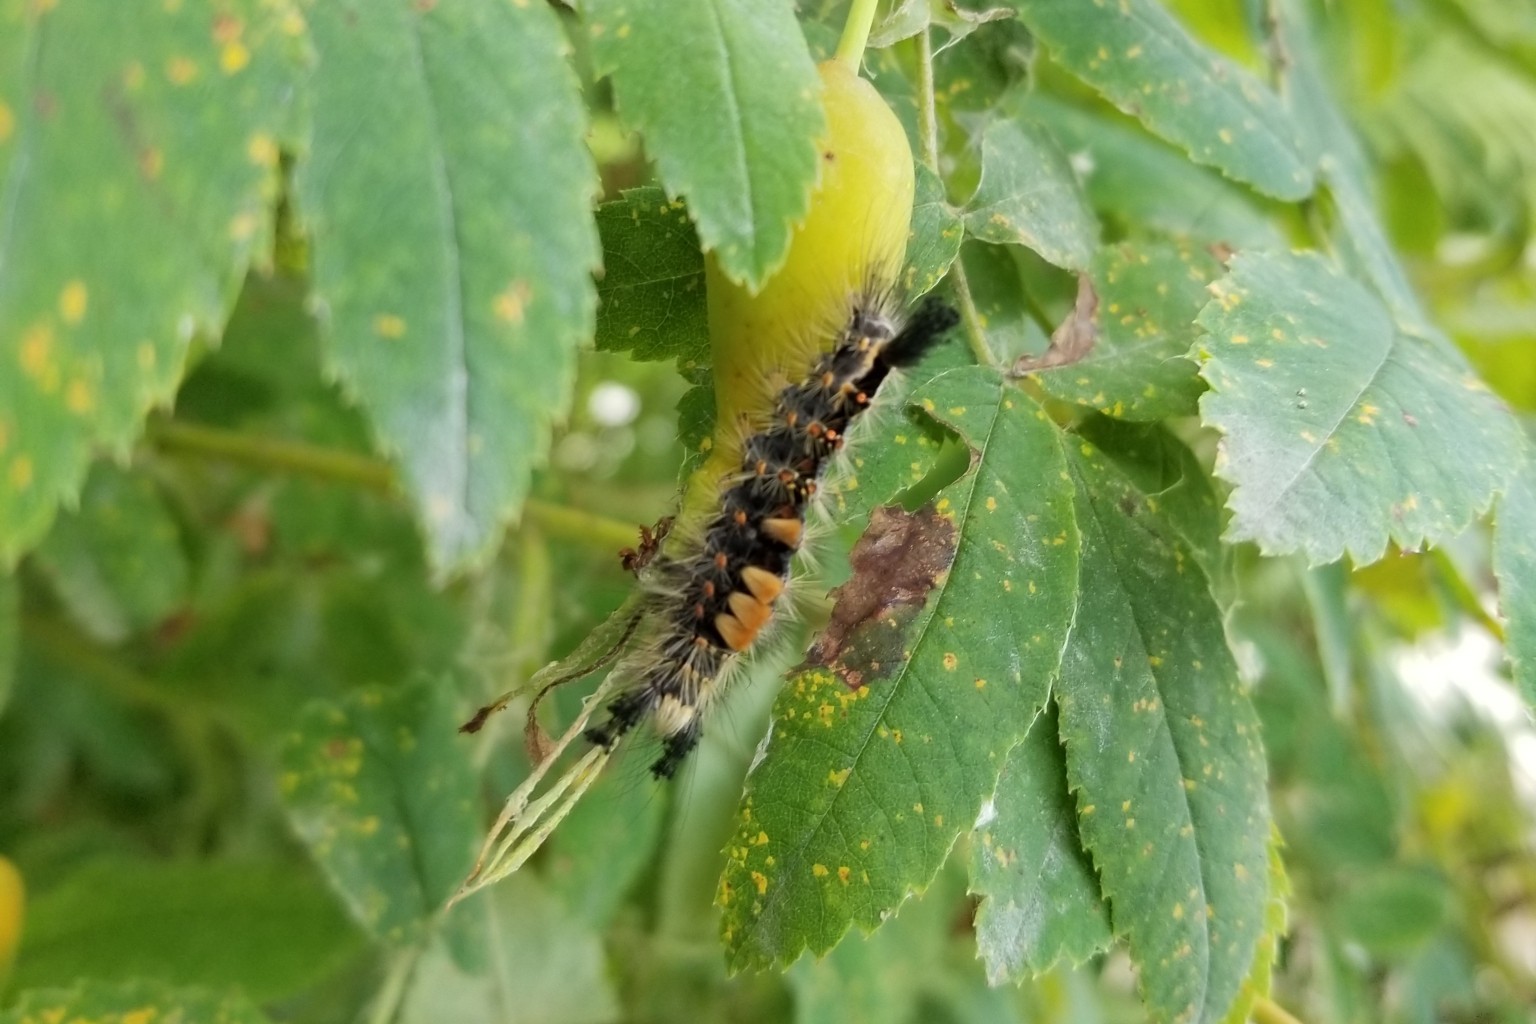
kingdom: Animalia
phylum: Arthropoda
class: Insecta
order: Lepidoptera
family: Erebidae
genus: Orgyia
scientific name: Orgyia antiqua
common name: Vapourer
